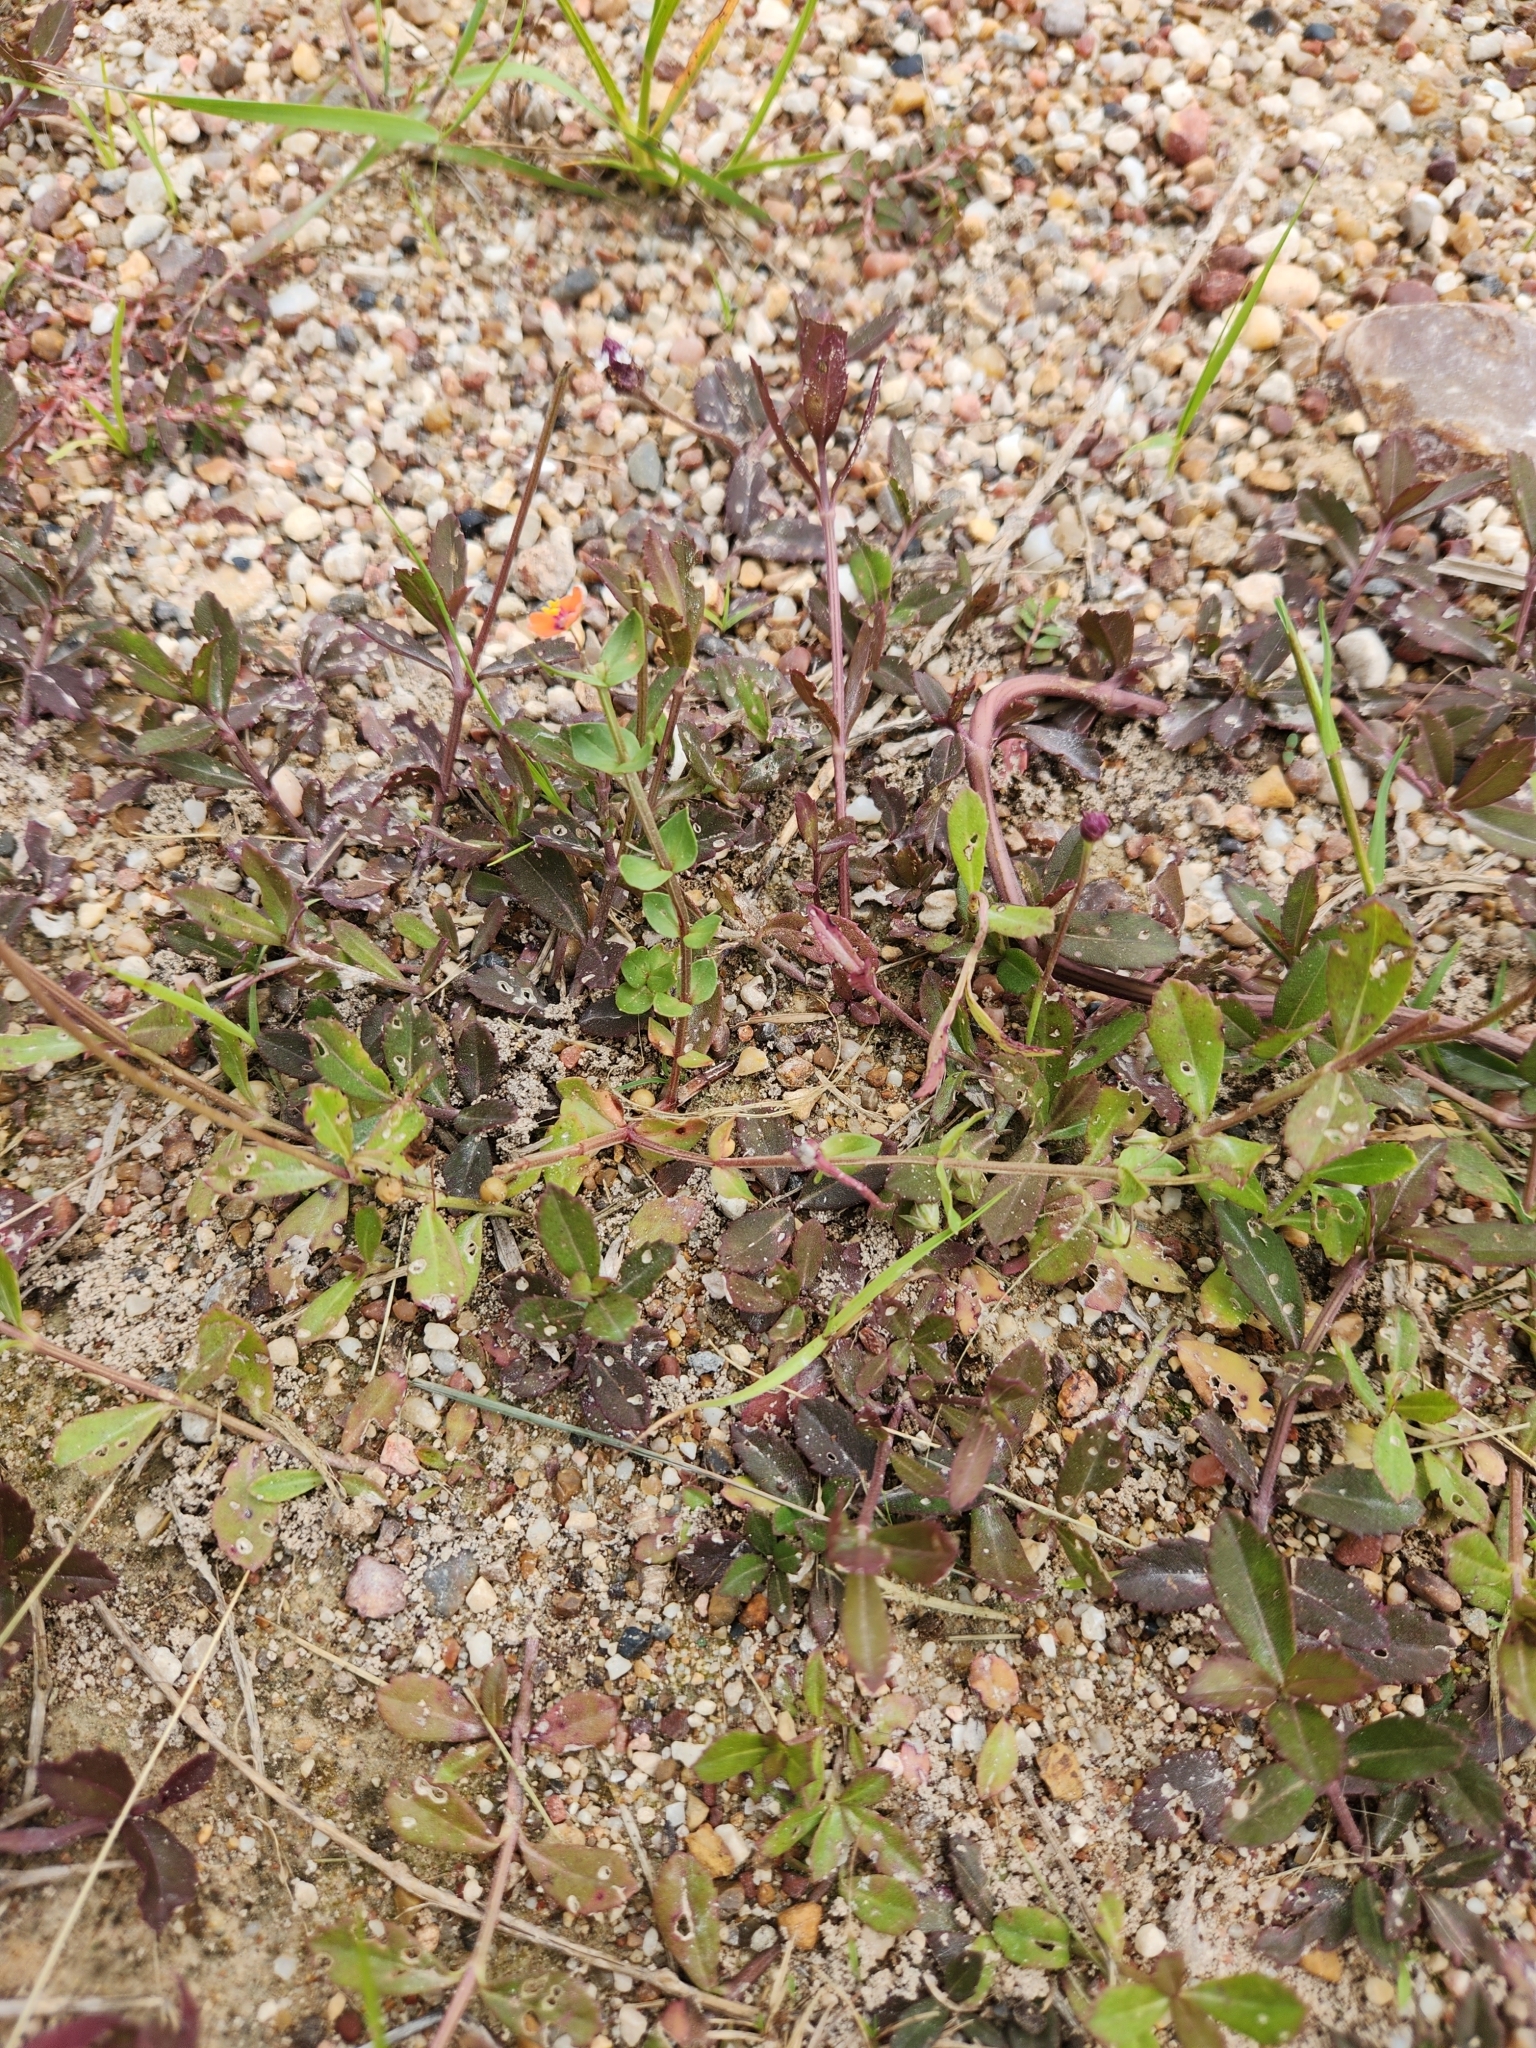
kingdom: Plantae
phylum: Tracheophyta
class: Magnoliopsida
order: Ericales
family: Primulaceae
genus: Lysimachia
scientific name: Lysimachia arvensis
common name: Scarlet pimpernel
